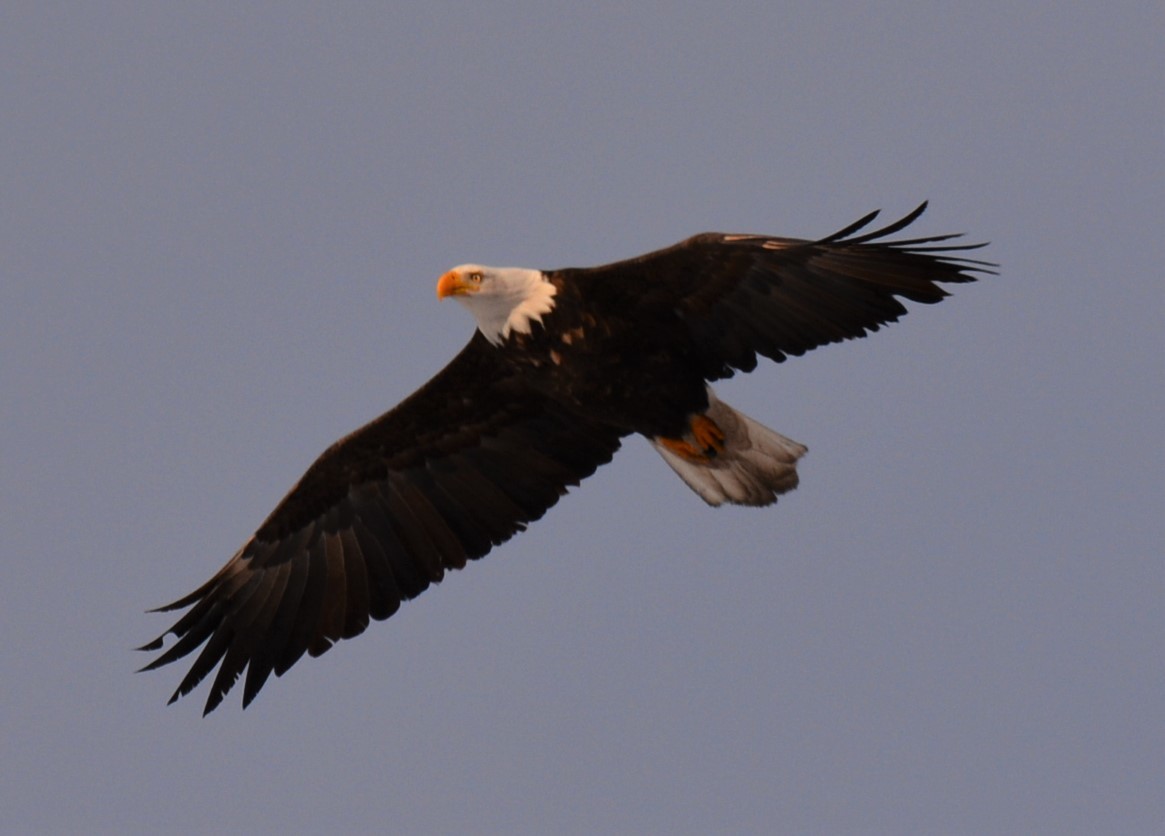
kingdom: Animalia
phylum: Chordata
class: Aves
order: Accipitriformes
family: Accipitridae
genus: Haliaeetus
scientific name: Haliaeetus leucocephalus
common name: Bald eagle
